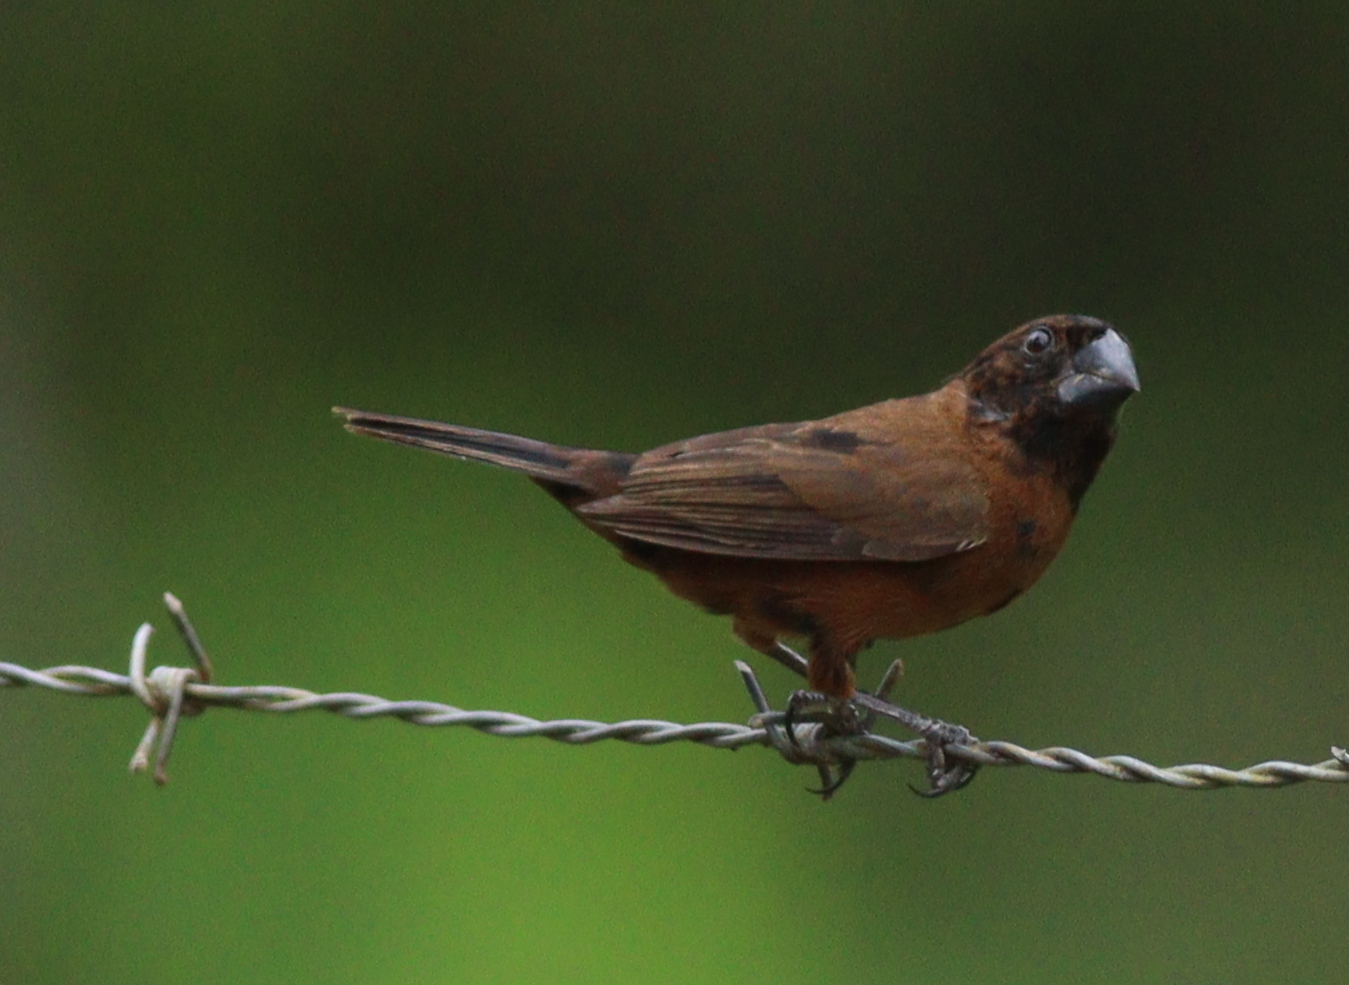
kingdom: Animalia
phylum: Chordata
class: Aves
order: Passeriformes
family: Thraupidae
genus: Sporophila
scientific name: Sporophila funerea
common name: Thick-billed seed-finch
